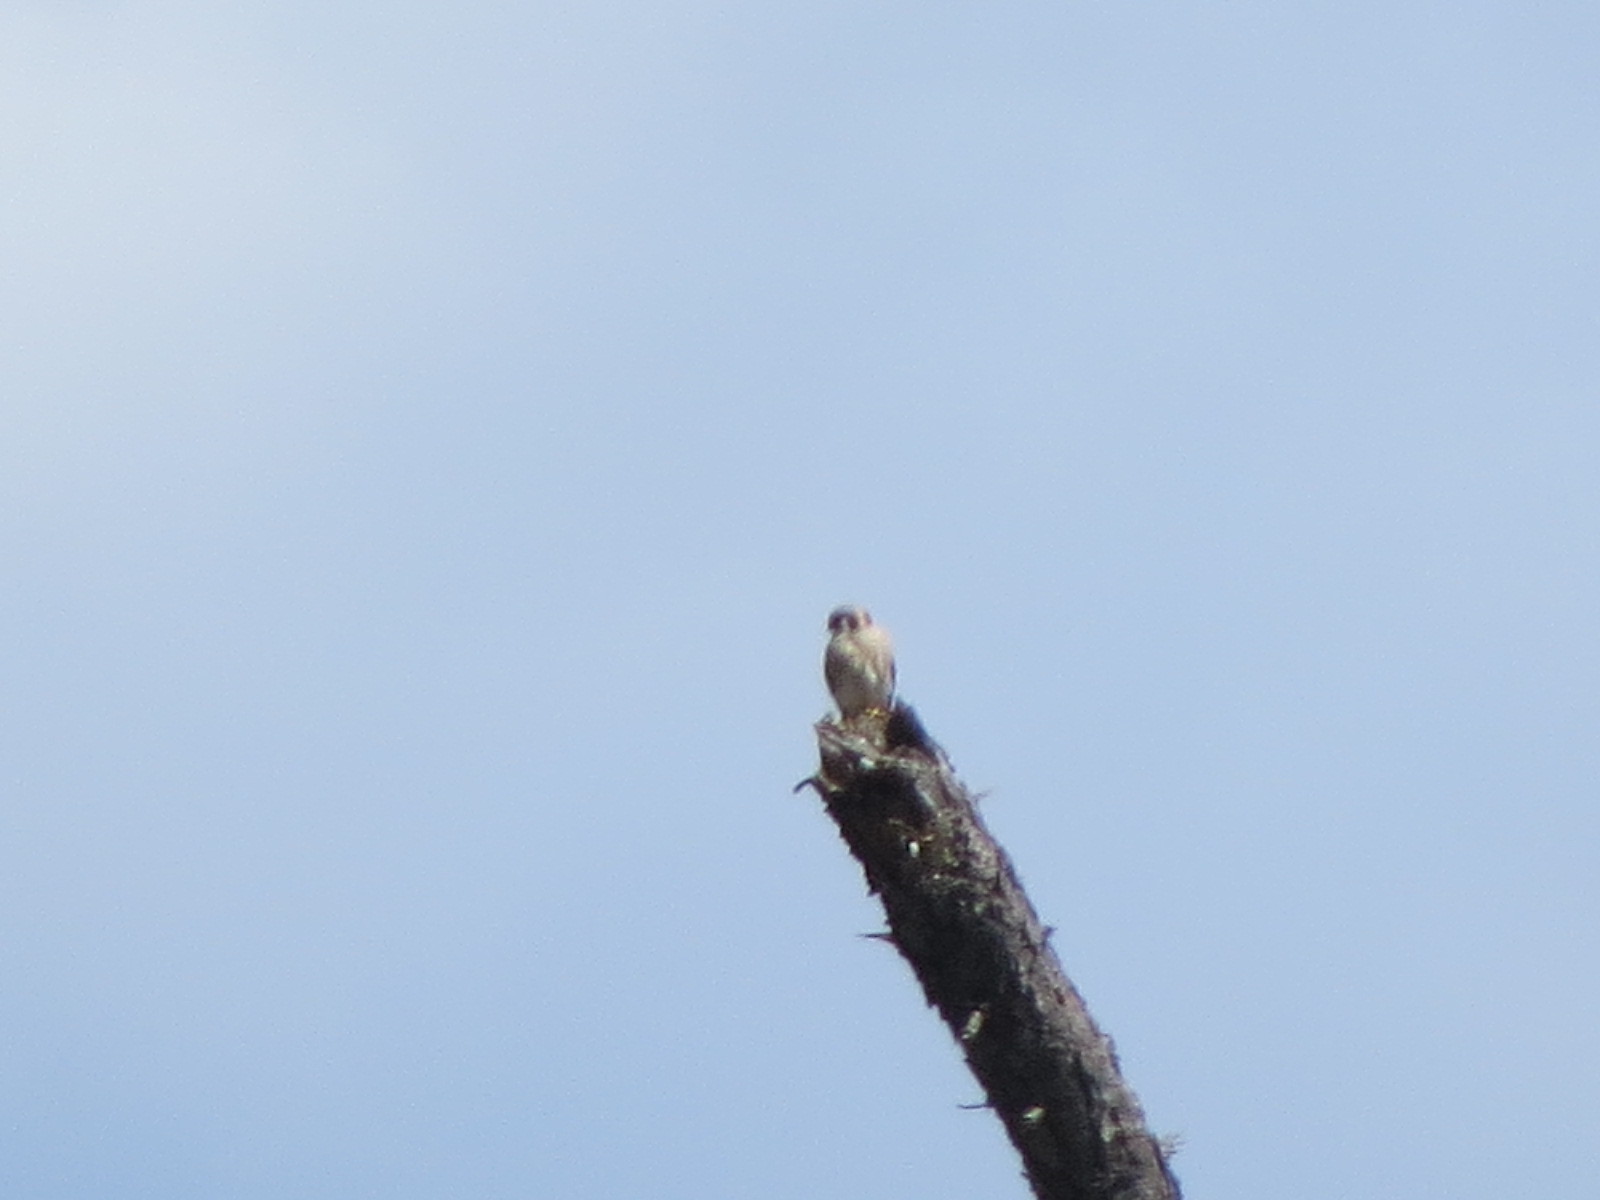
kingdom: Animalia
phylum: Chordata
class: Aves
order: Falconiformes
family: Falconidae
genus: Falco
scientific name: Falco sparverius
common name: American kestrel
